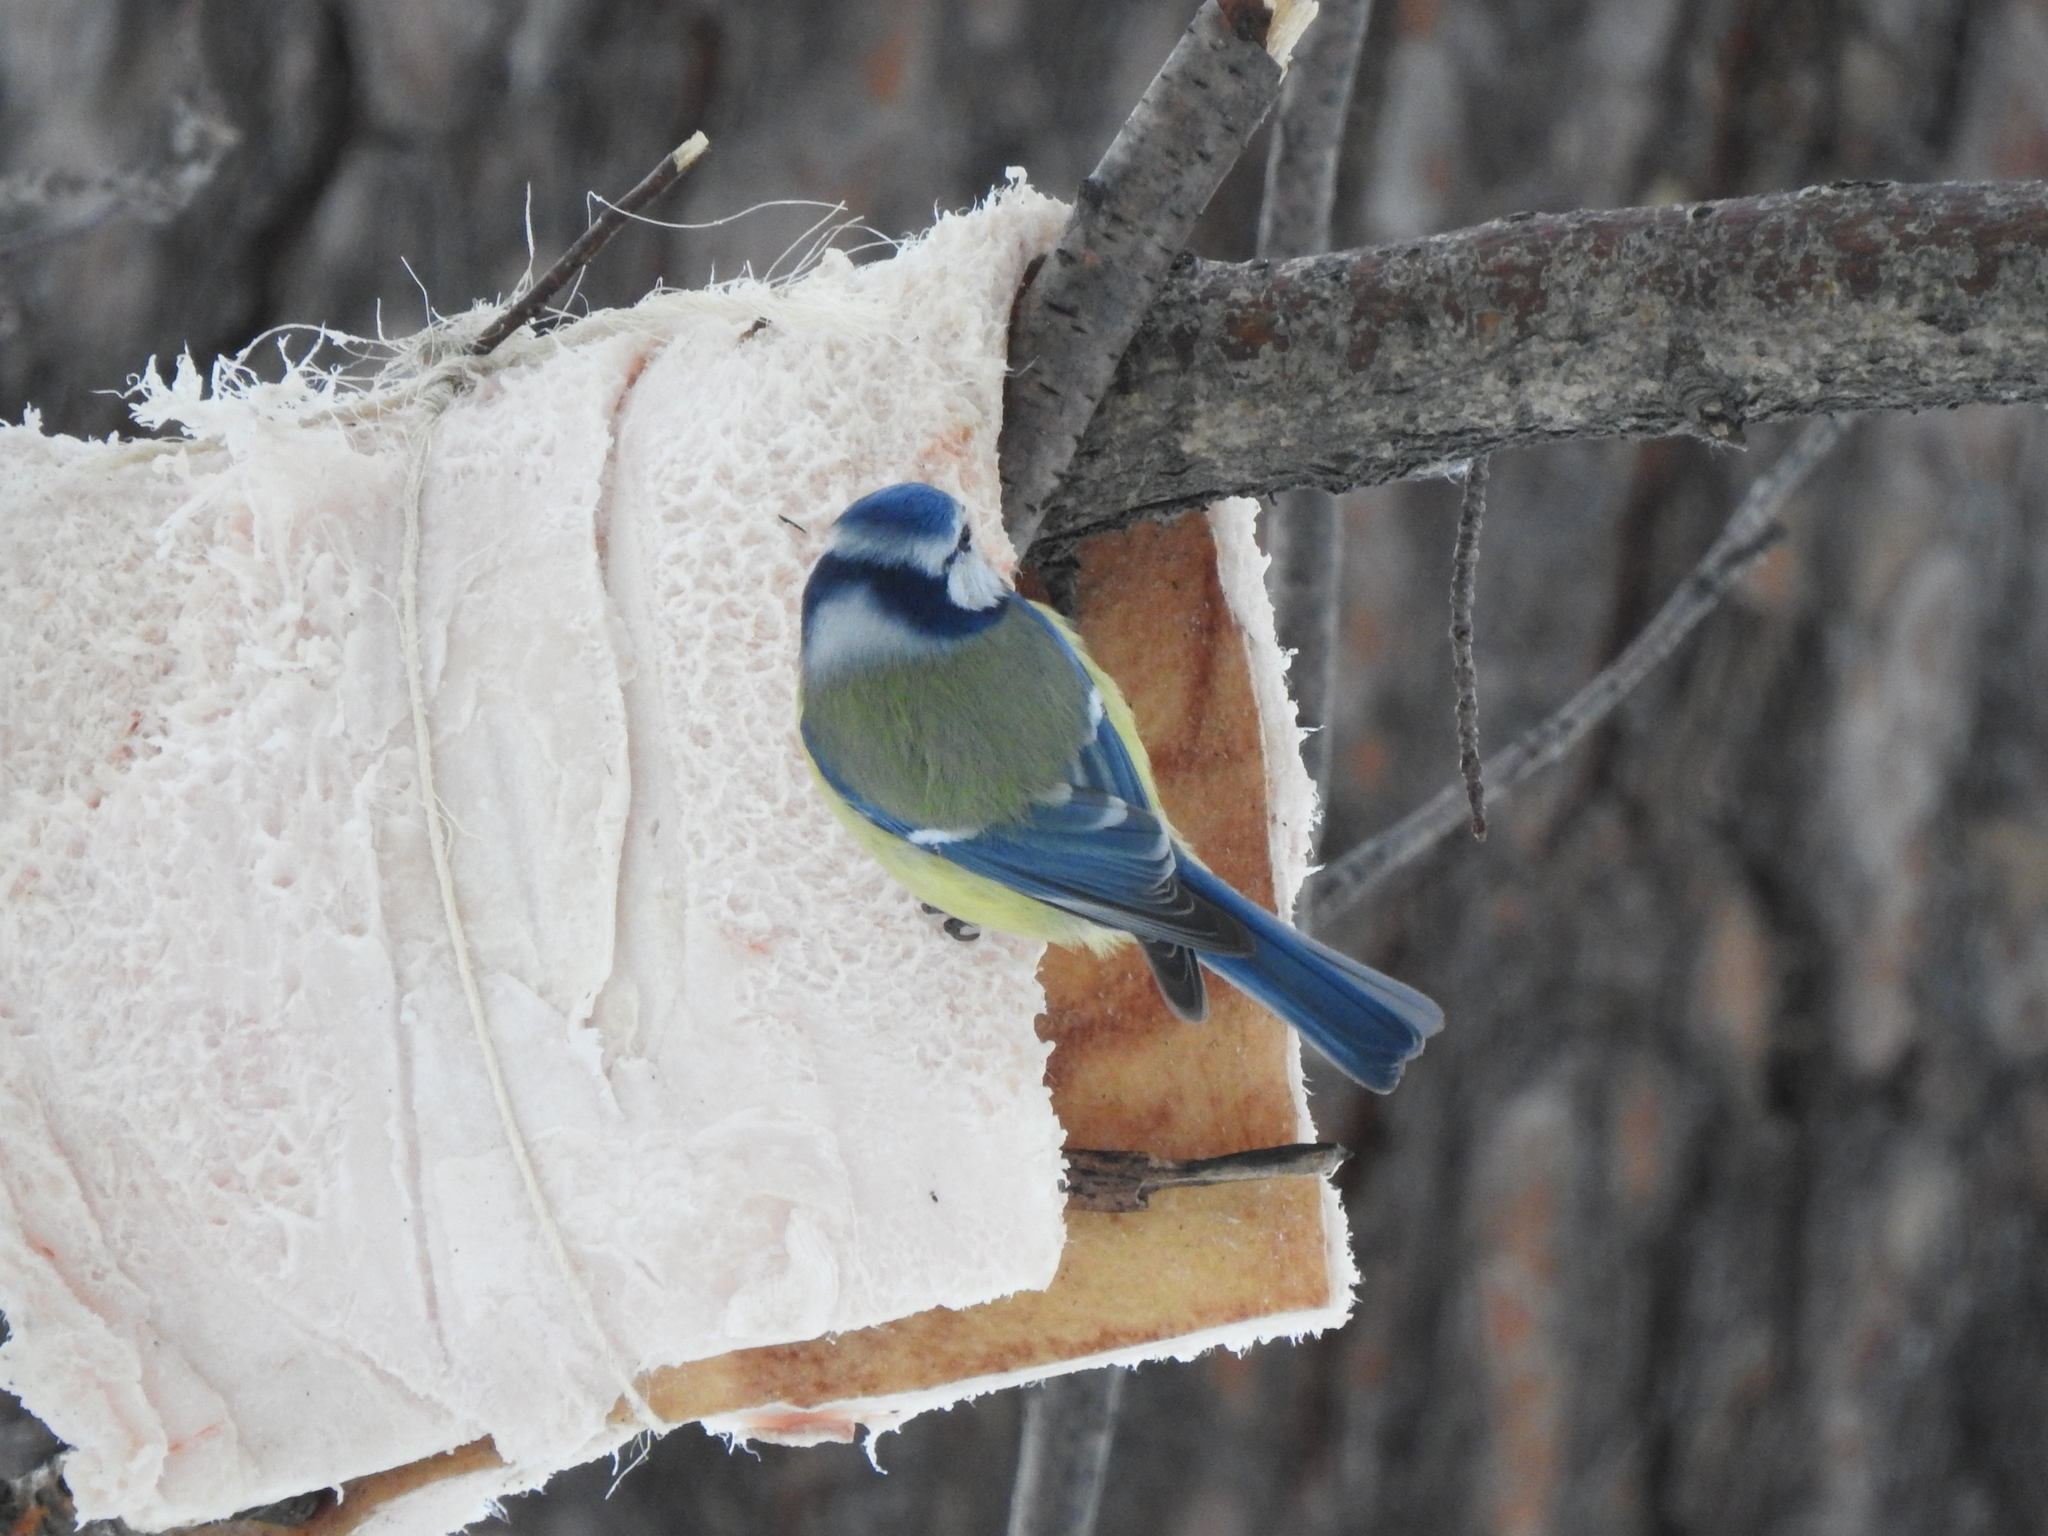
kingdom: Animalia
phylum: Chordata
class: Aves
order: Passeriformes
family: Paridae
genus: Cyanistes
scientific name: Cyanistes caeruleus
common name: Eurasian blue tit
